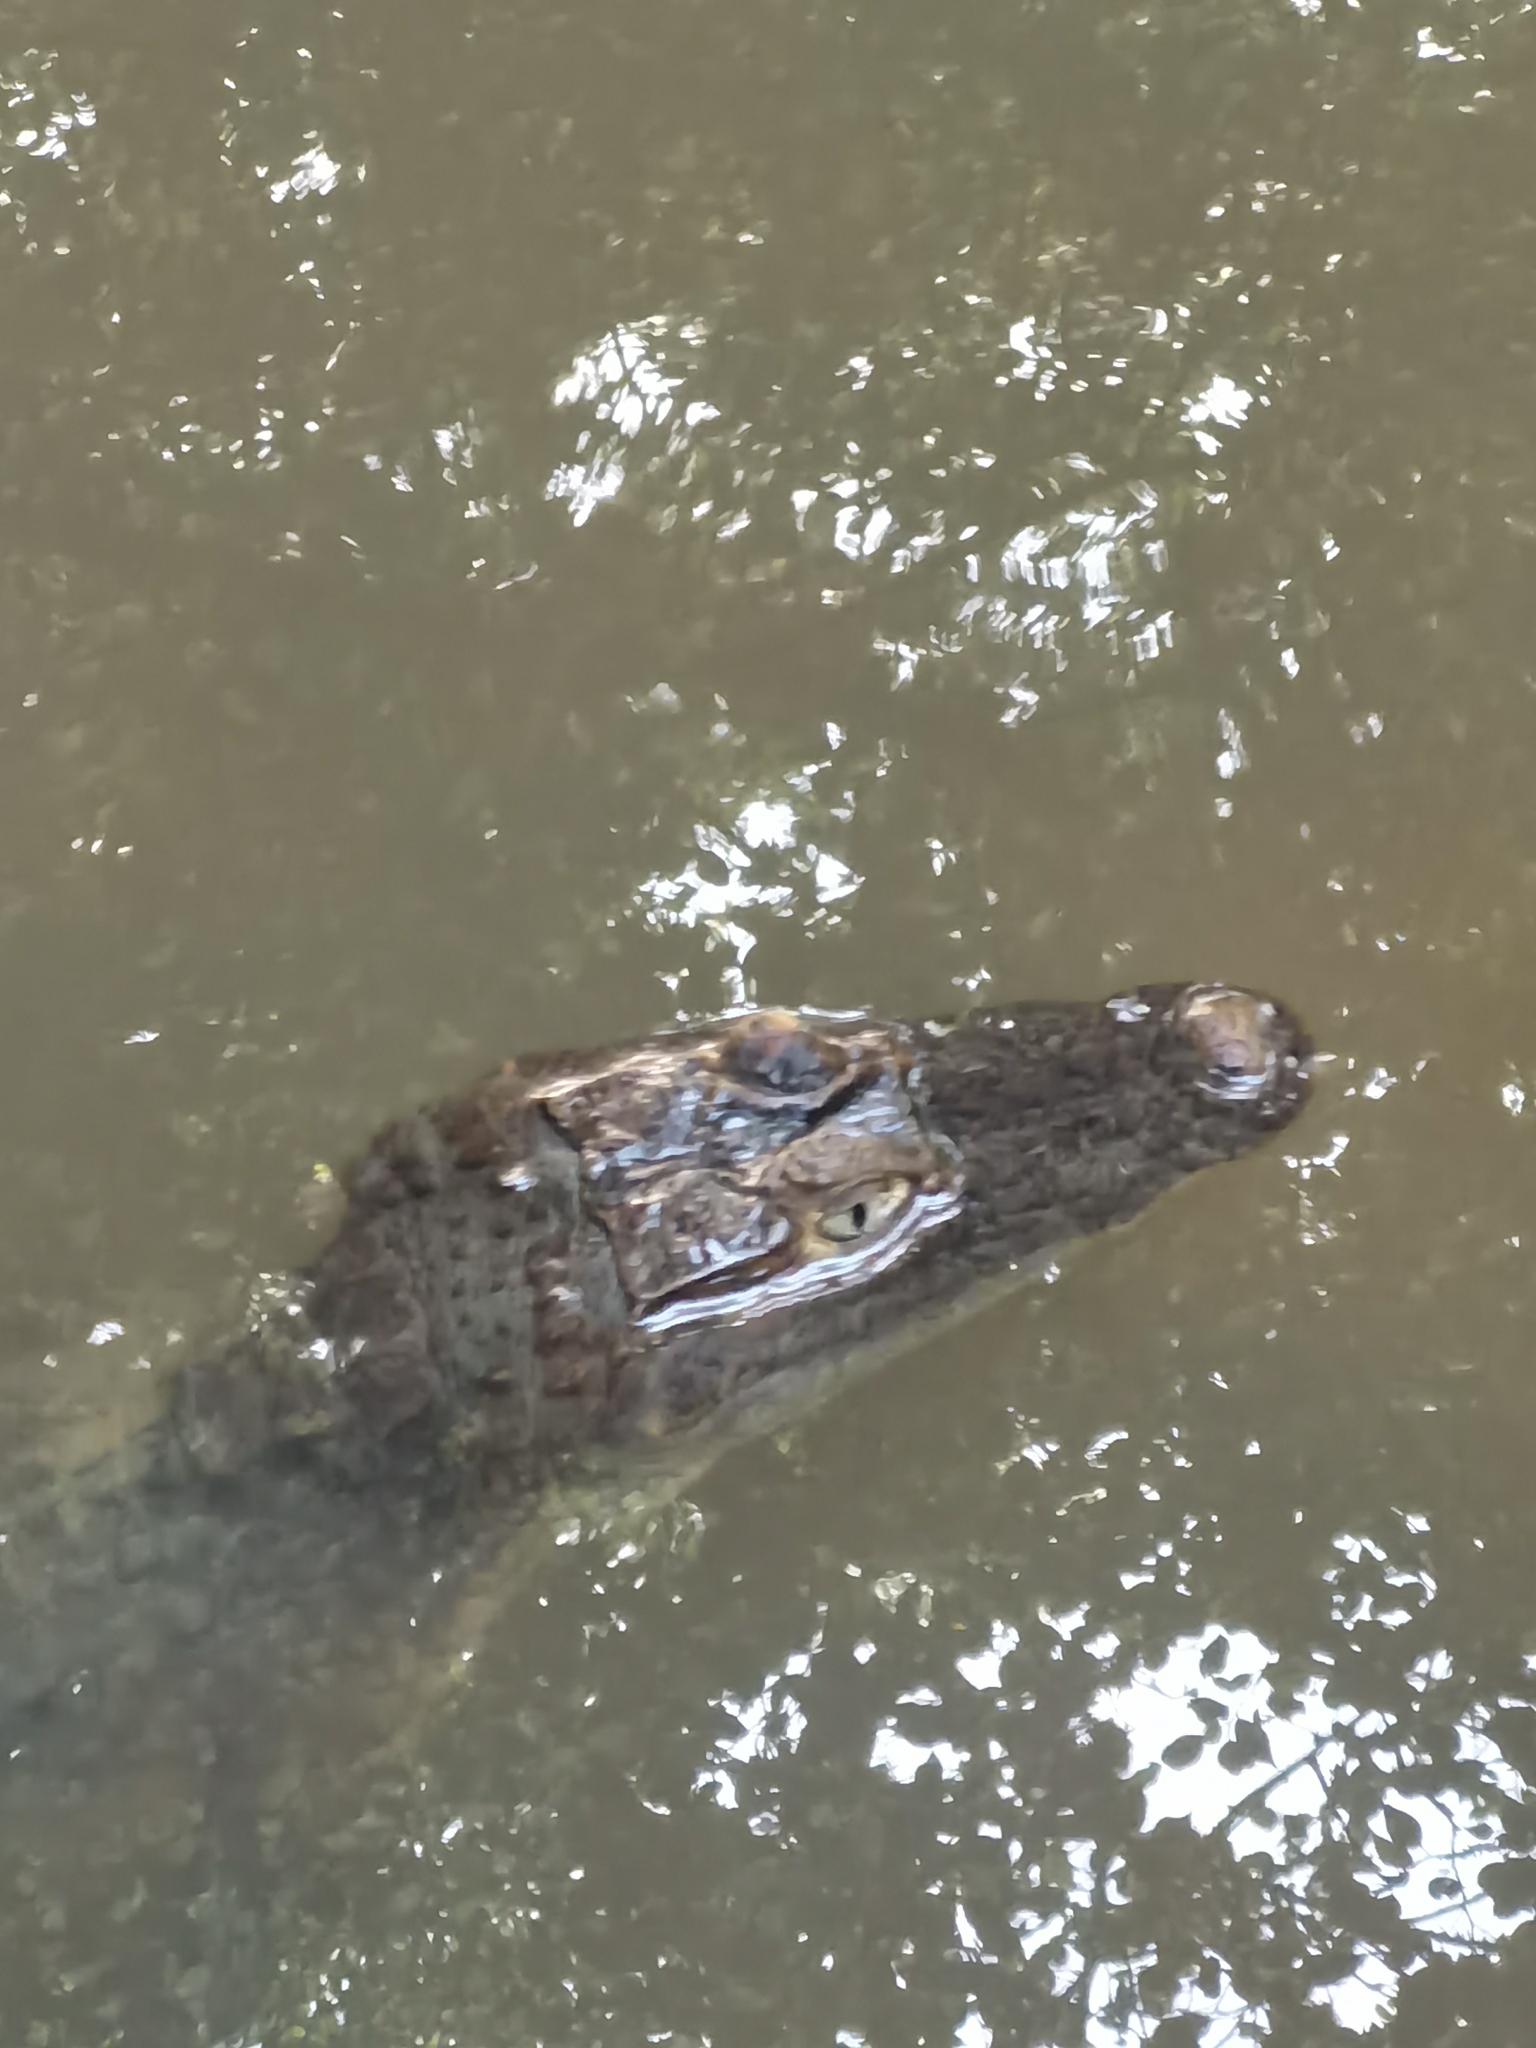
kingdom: Animalia
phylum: Chordata
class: Crocodylia
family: Alligatoridae
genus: Caiman
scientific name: Caiman crocodilus
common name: Common caiman
